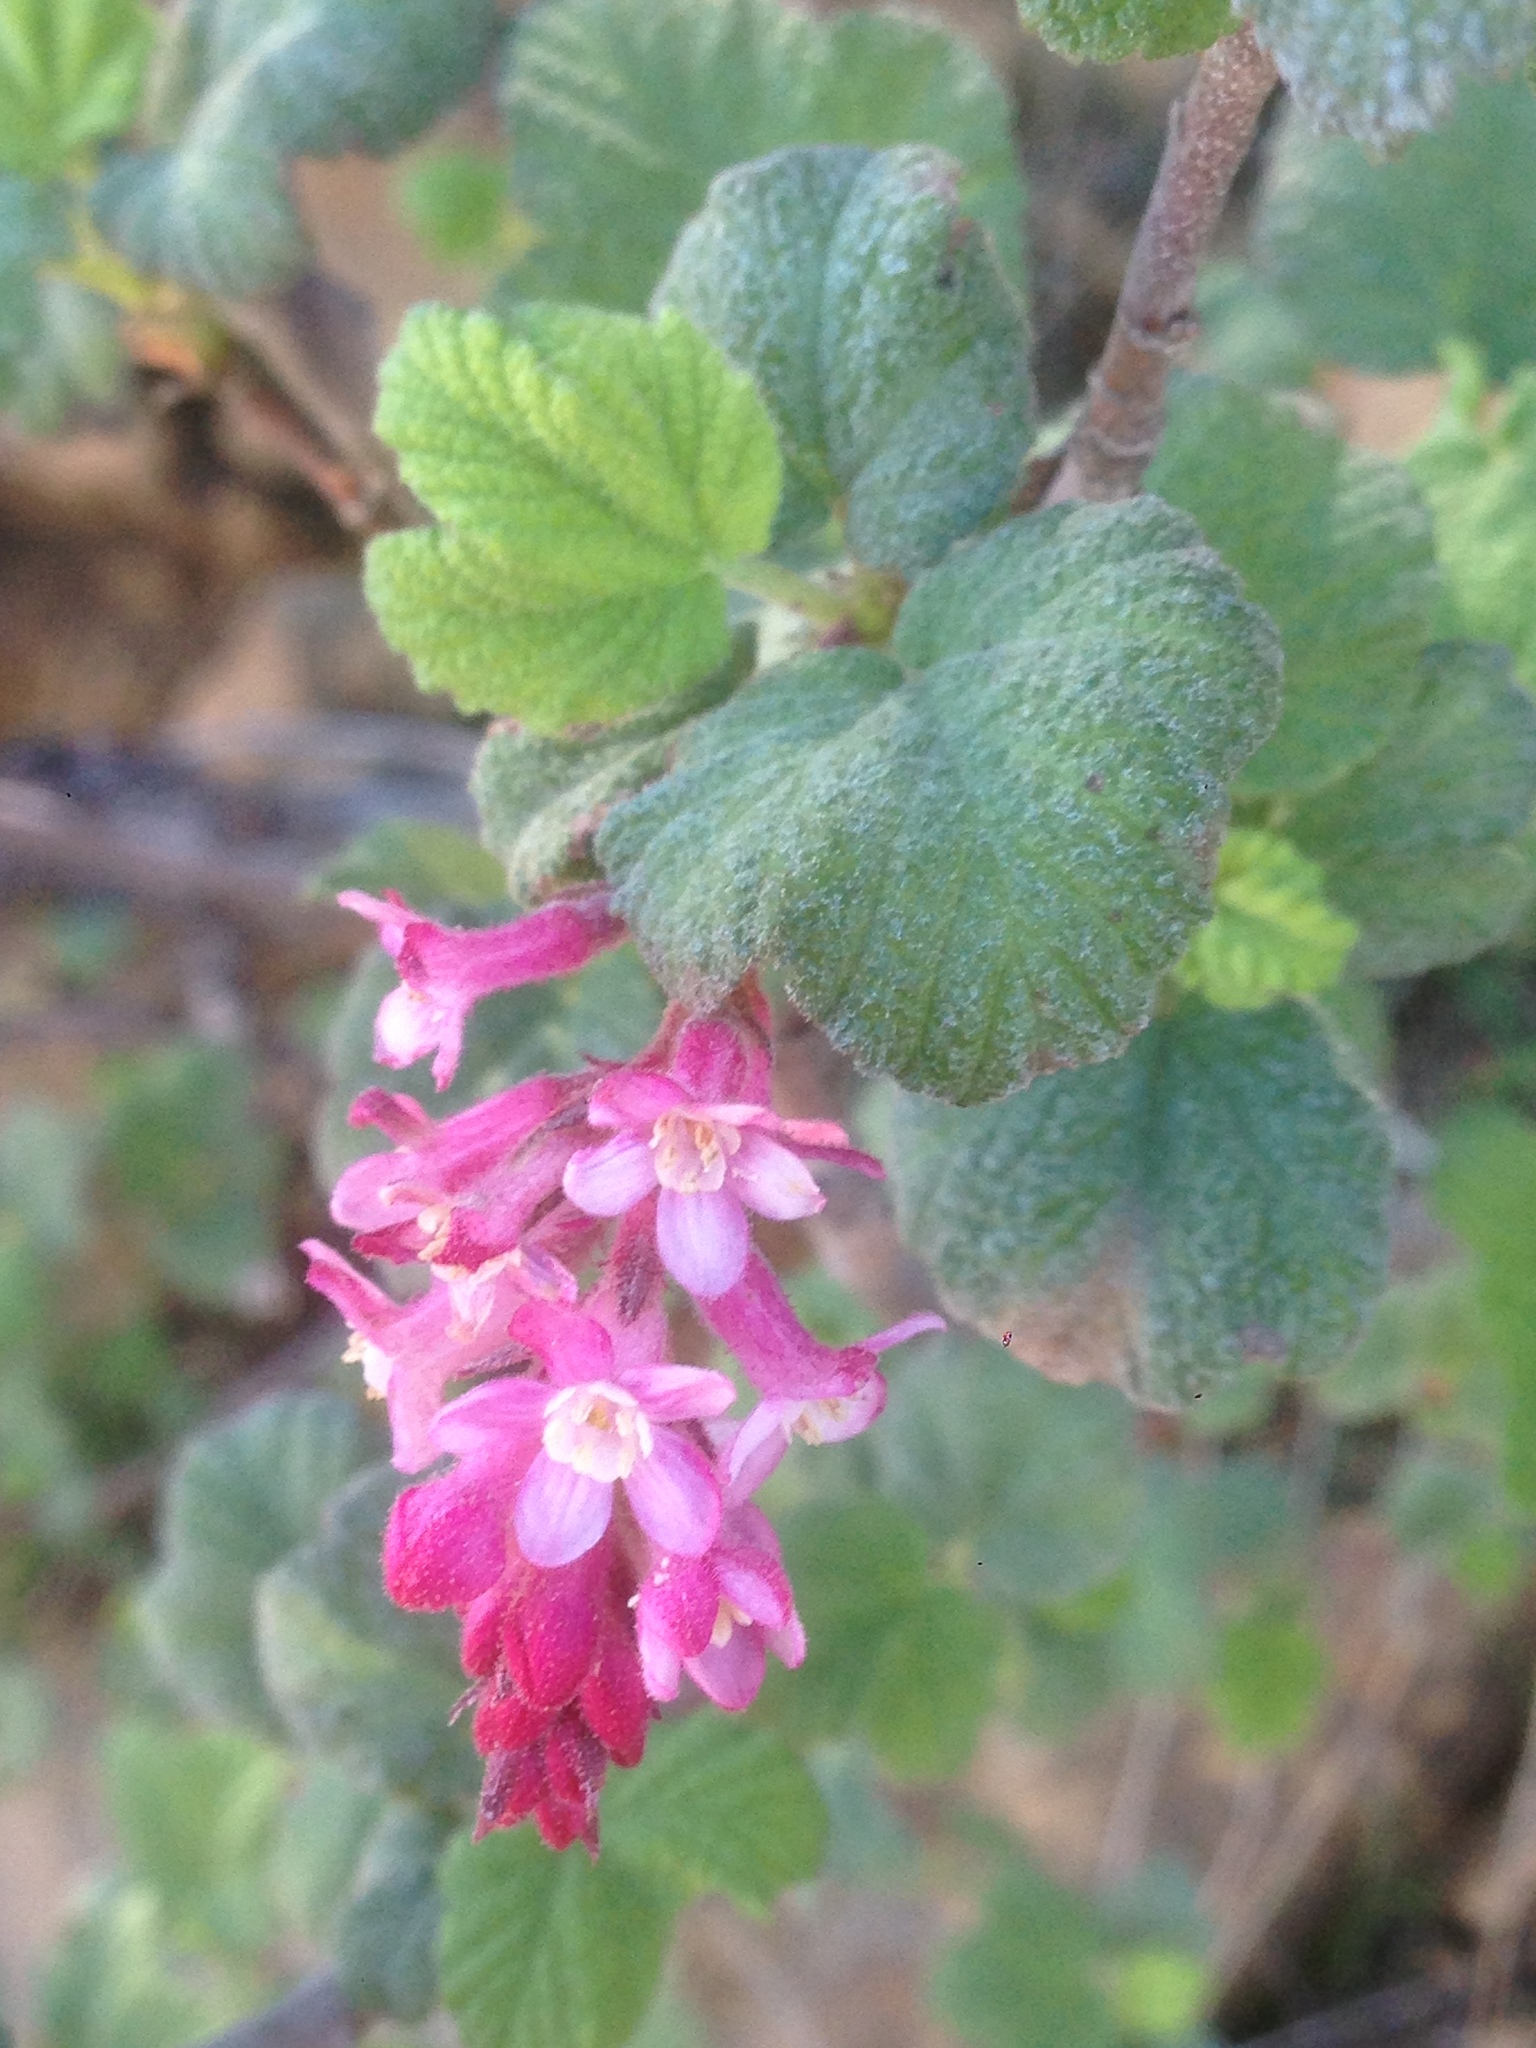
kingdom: Plantae
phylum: Tracheophyta
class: Magnoliopsida
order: Saxifragales
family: Grossulariaceae
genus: Ribes
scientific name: Ribes malvaceum
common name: Chaparral currant
